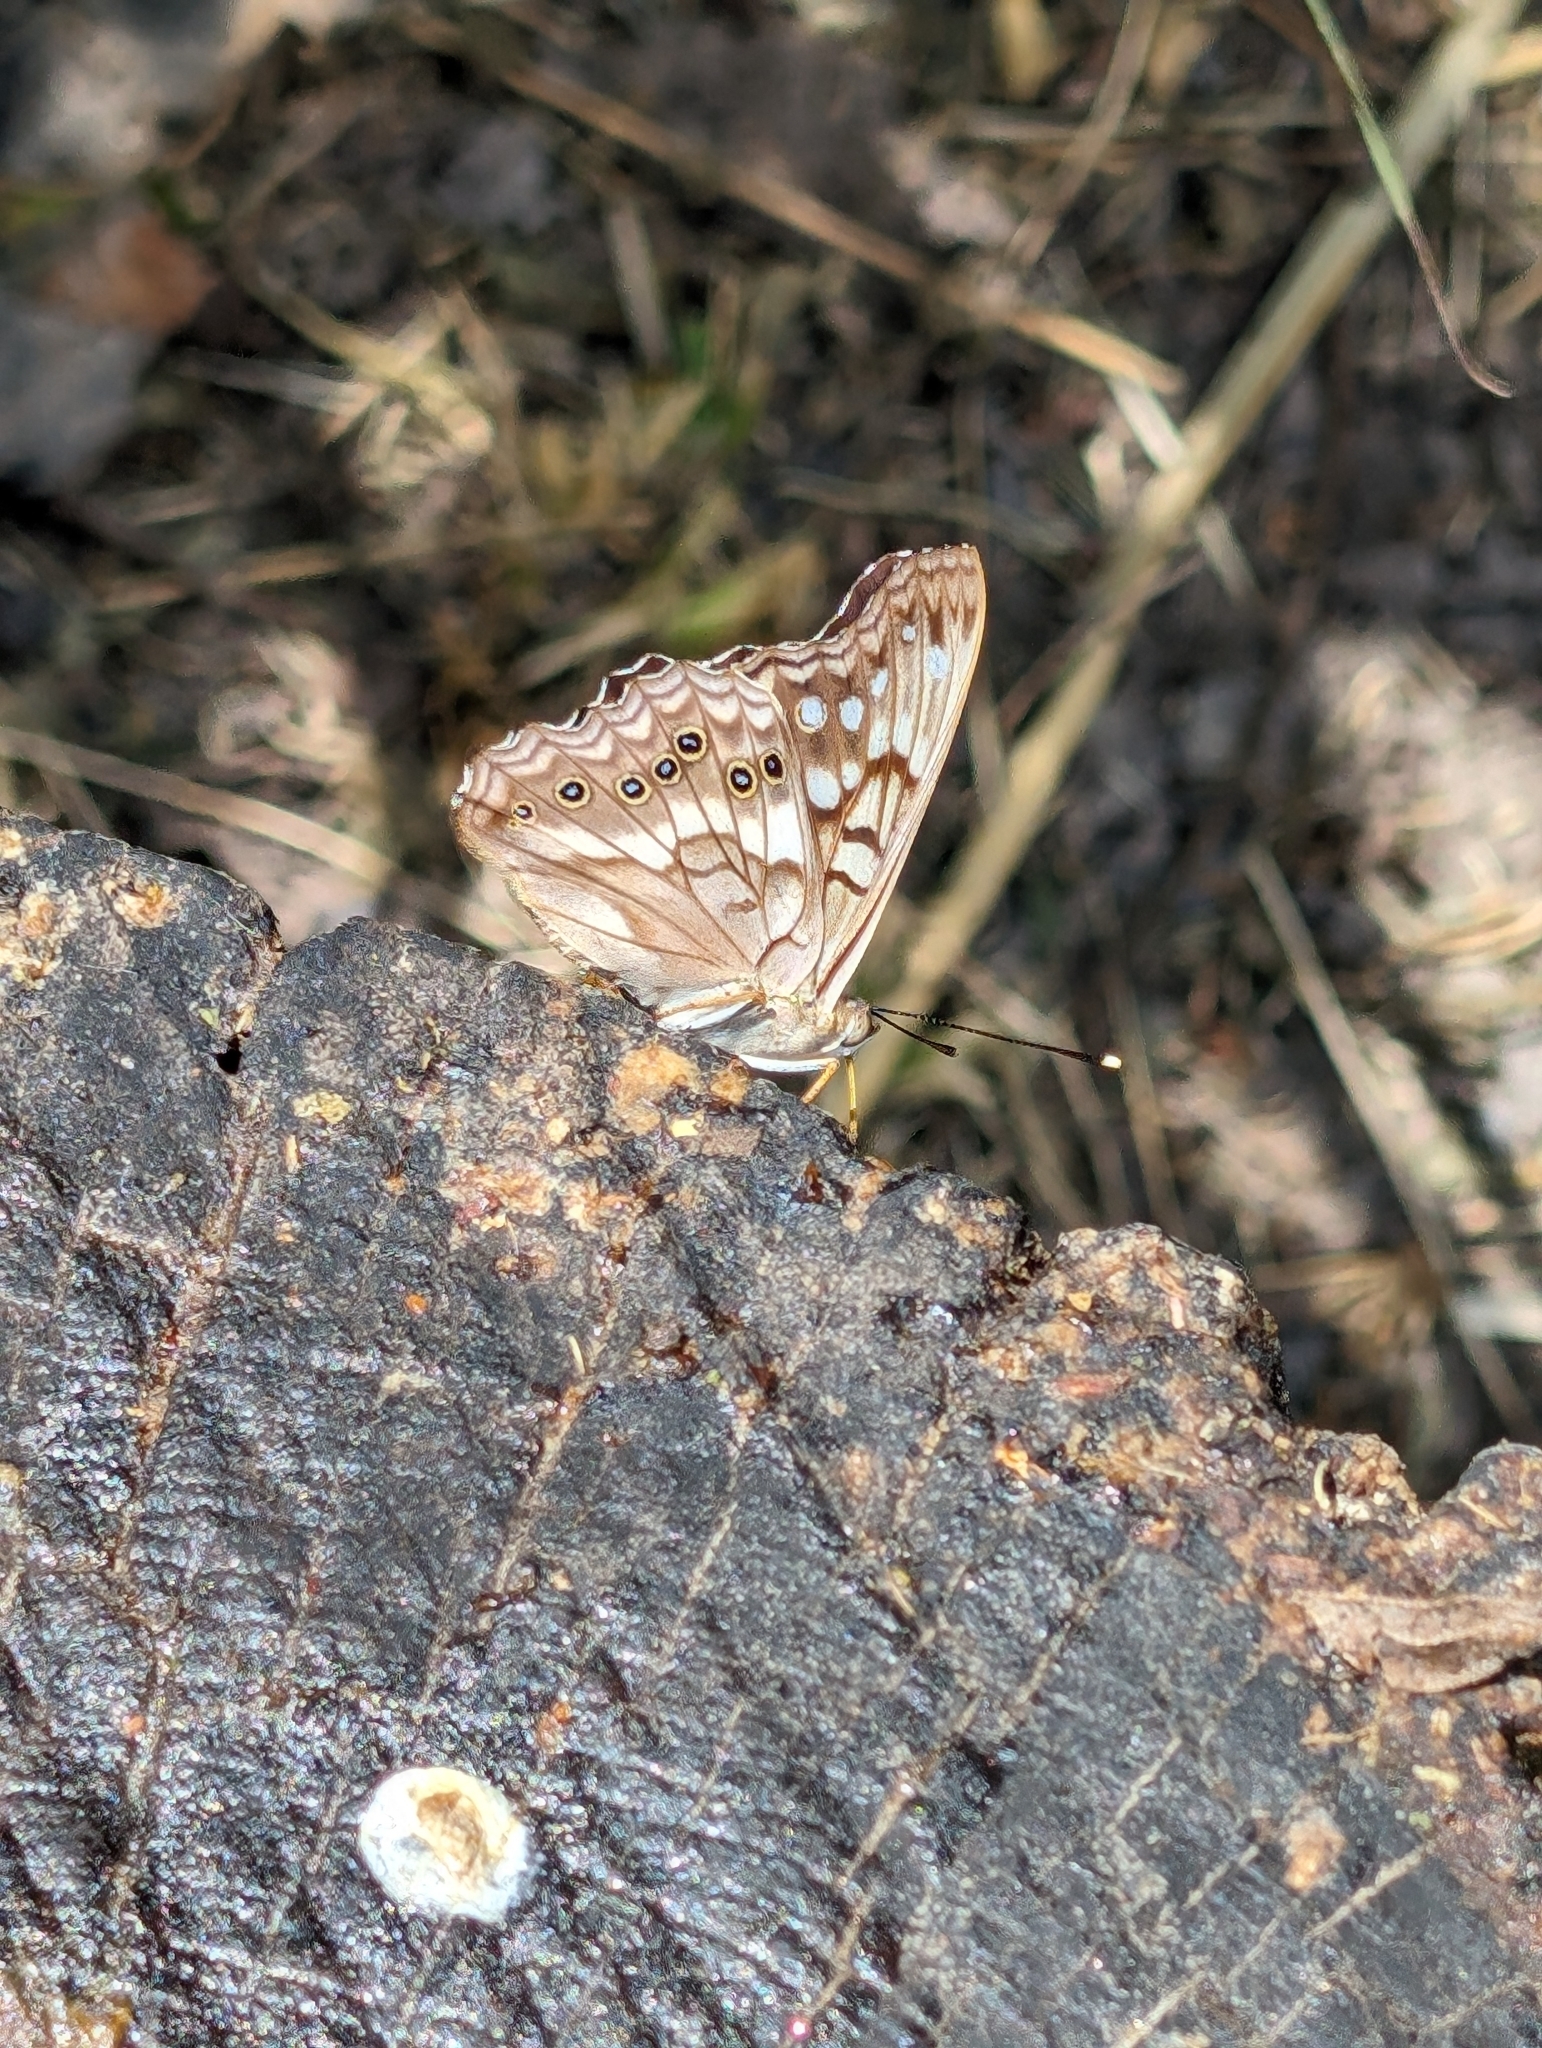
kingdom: Animalia
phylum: Arthropoda
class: Insecta
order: Lepidoptera
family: Nymphalidae
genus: Asterocampa
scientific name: Asterocampa clyton
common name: Tawny emperor
